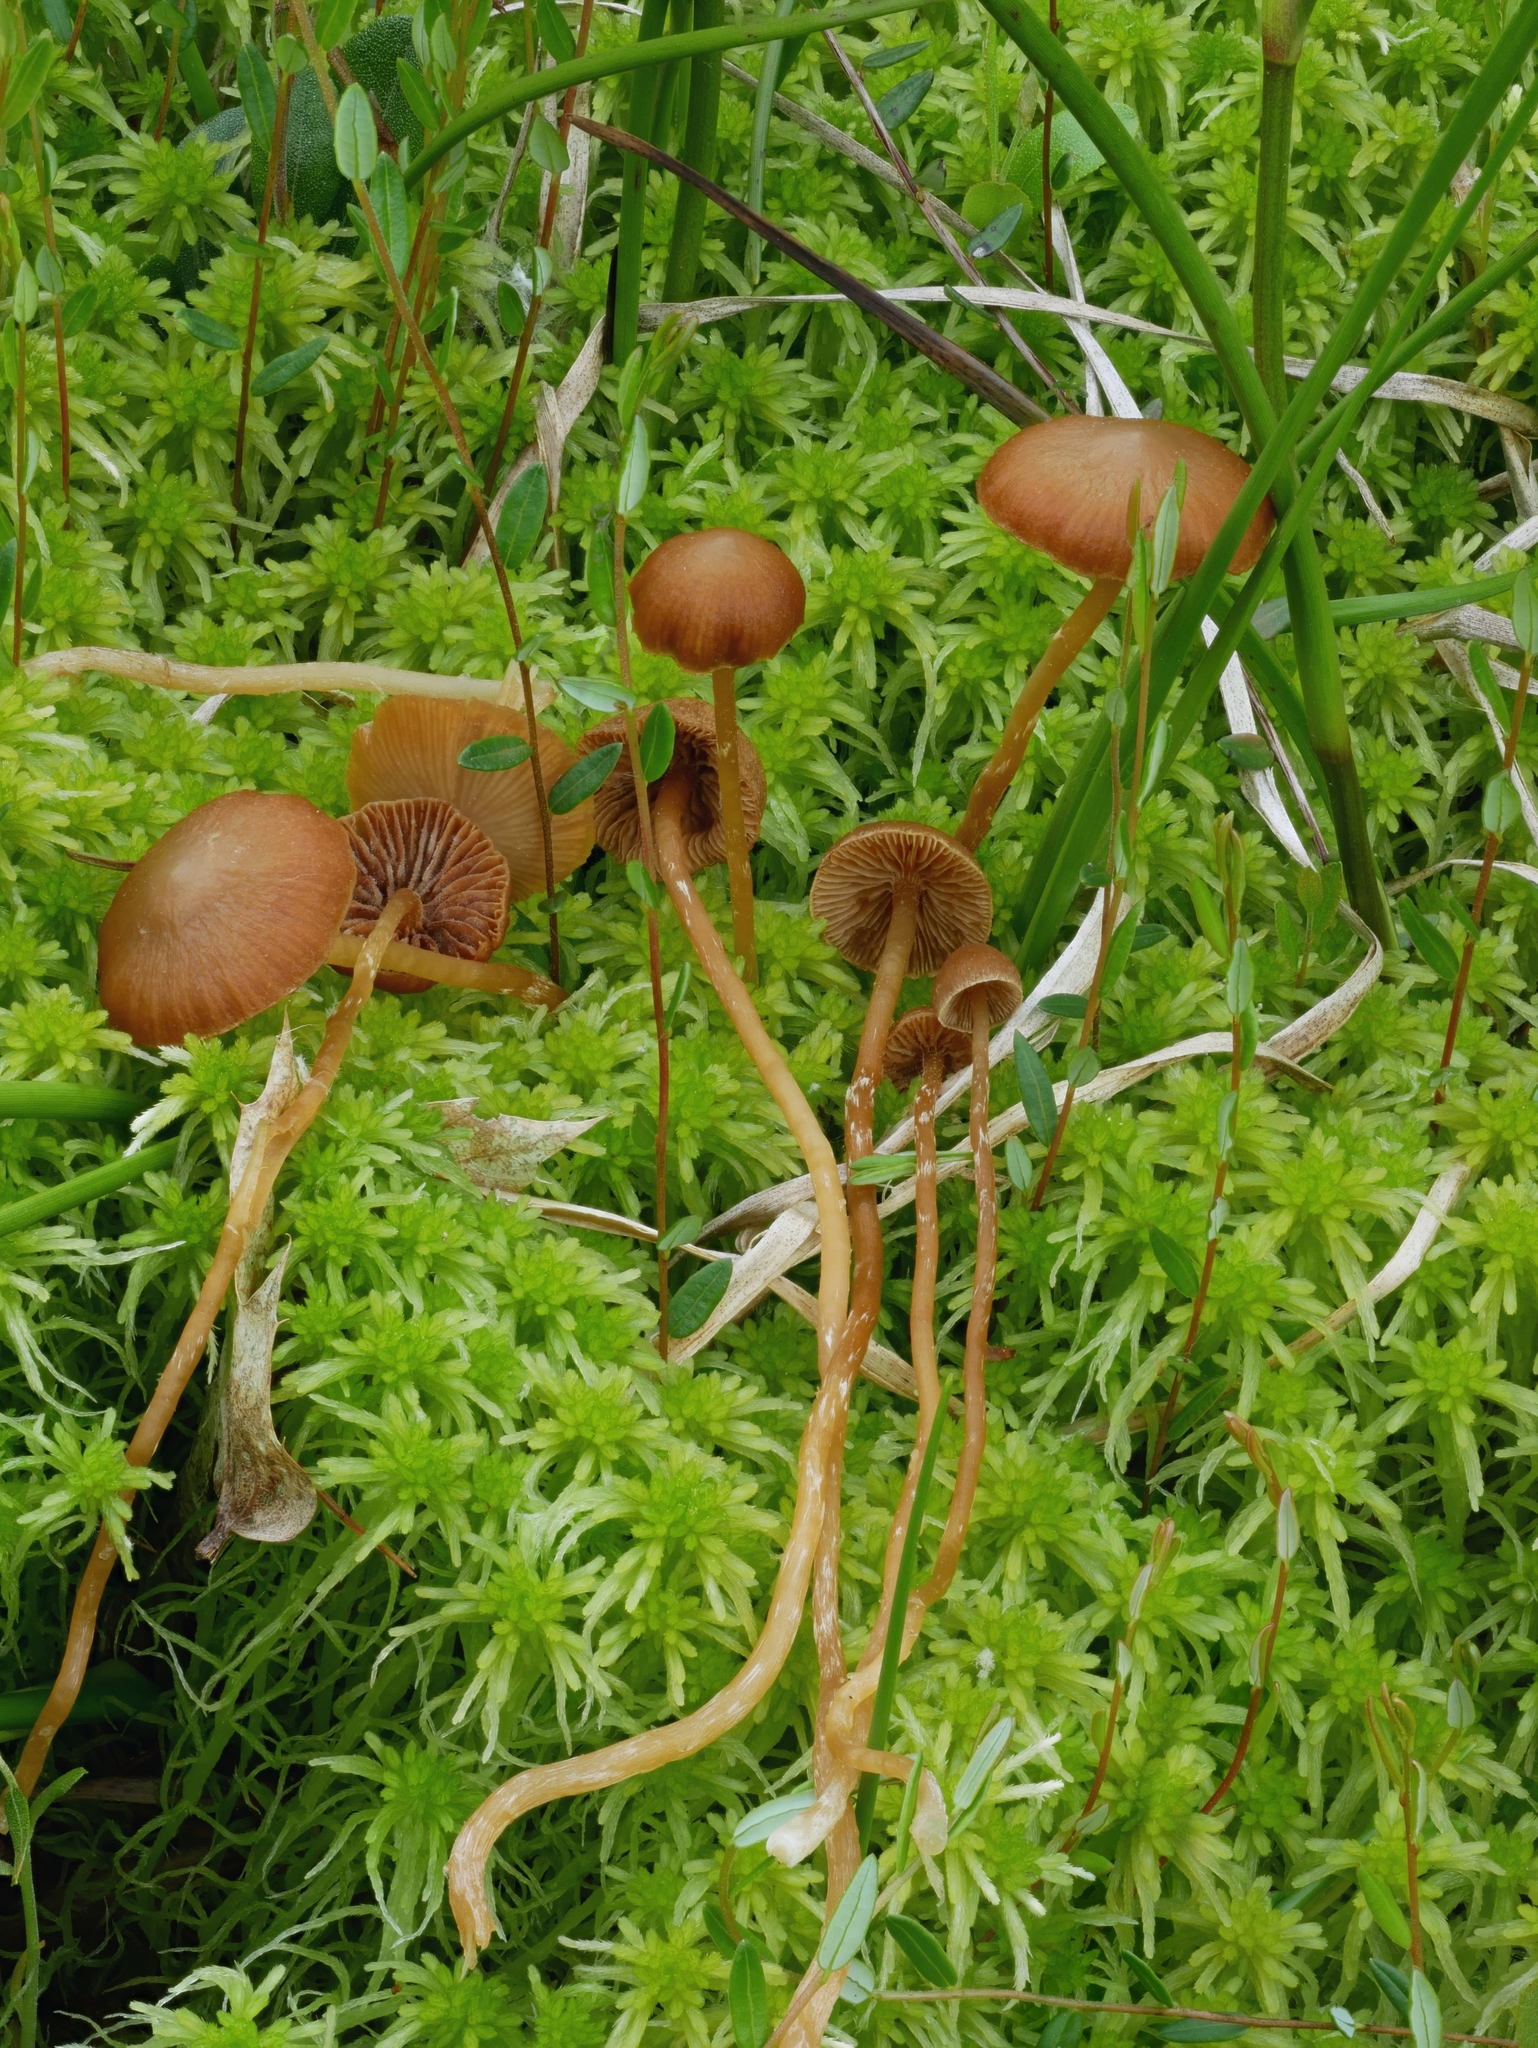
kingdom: Fungi
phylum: Basidiomycota
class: Agaricomycetes
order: Agaricales
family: Hymenogastraceae
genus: Galerina
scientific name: Galerina paludosa
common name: Bog bell
